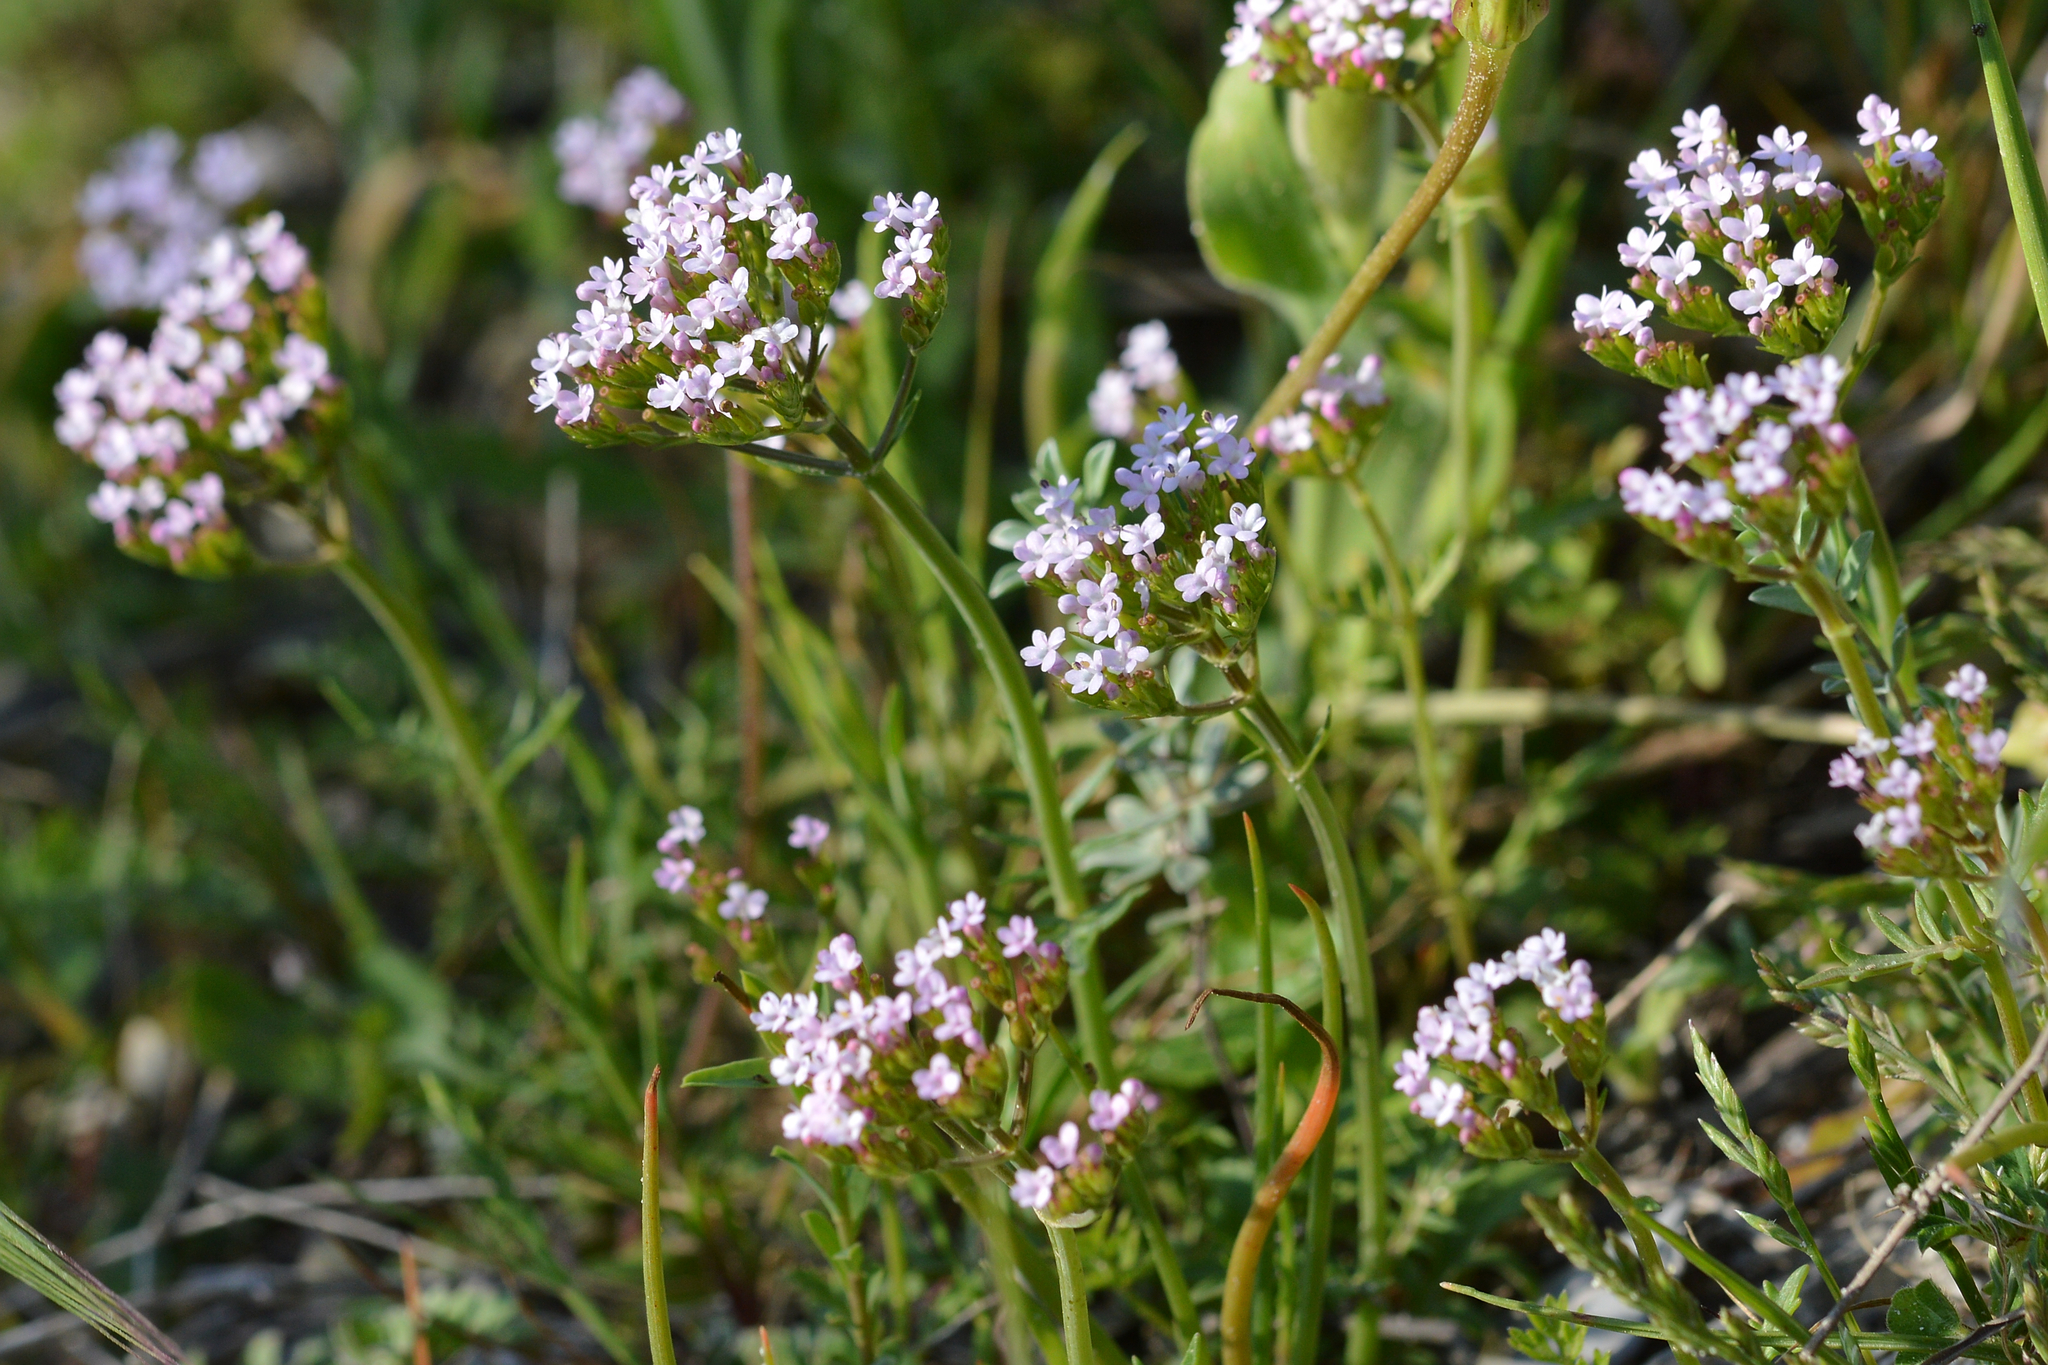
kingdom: Plantae
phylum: Tracheophyta
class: Magnoliopsida
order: Dipsacales
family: Caprifoliaceae
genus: Centranthus
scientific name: Centranthus calcitrapae
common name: Annual valerian
